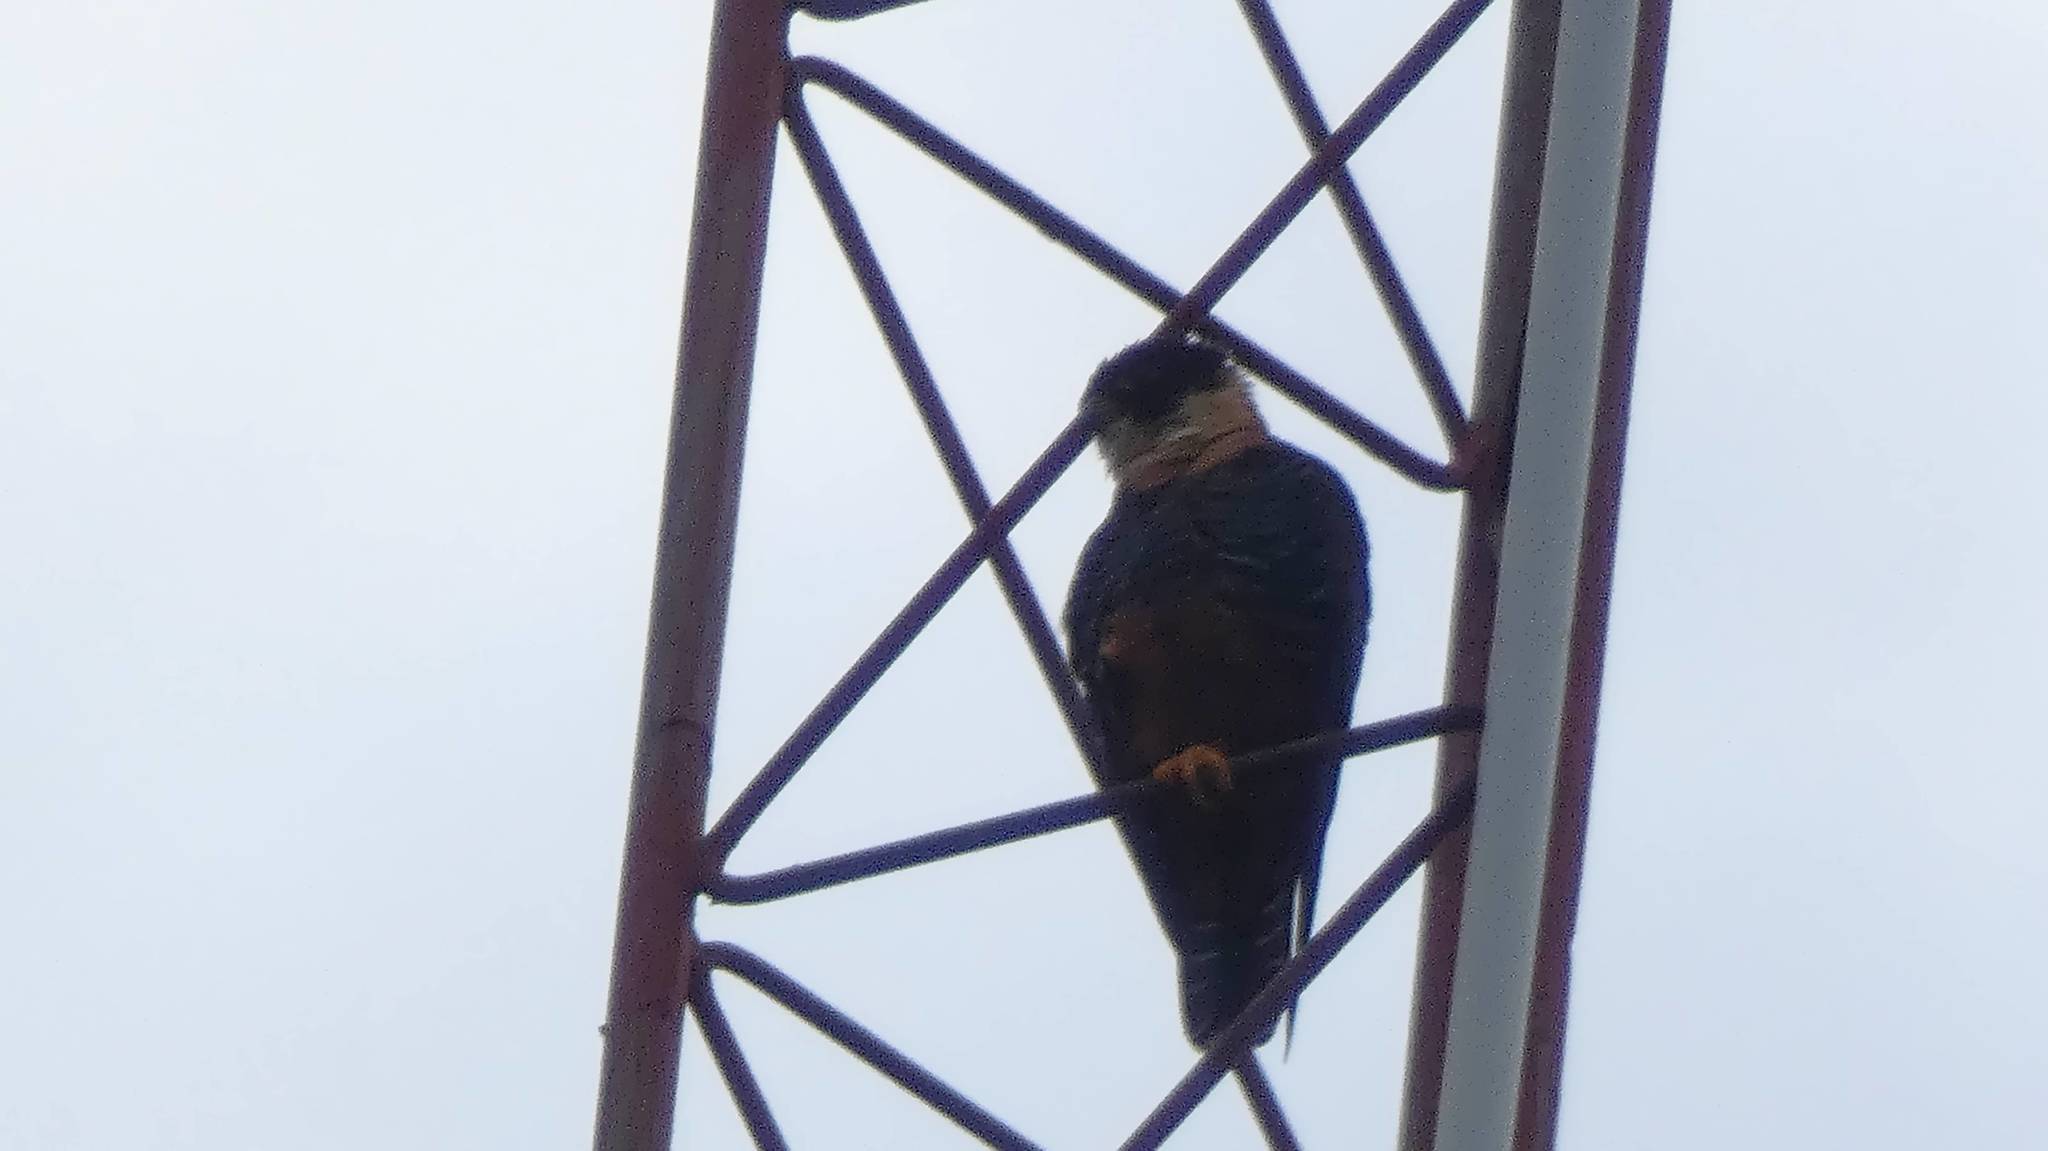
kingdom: Animalia
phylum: Chordata
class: Aves
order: Falconiformes
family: Falconidae
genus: Falco
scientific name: Falco rufigularis
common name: Bat falcon
